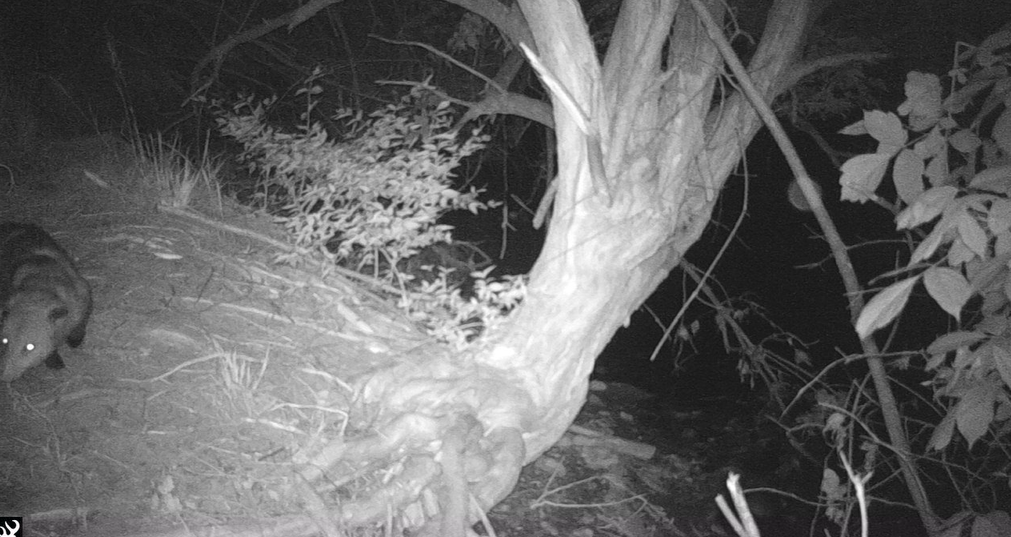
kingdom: Animalia
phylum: Chordata
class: Mammalia
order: Didelphimorphia
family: Didelphidae
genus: Didelphis
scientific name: Didelphis virginiana
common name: Virginia opossum
